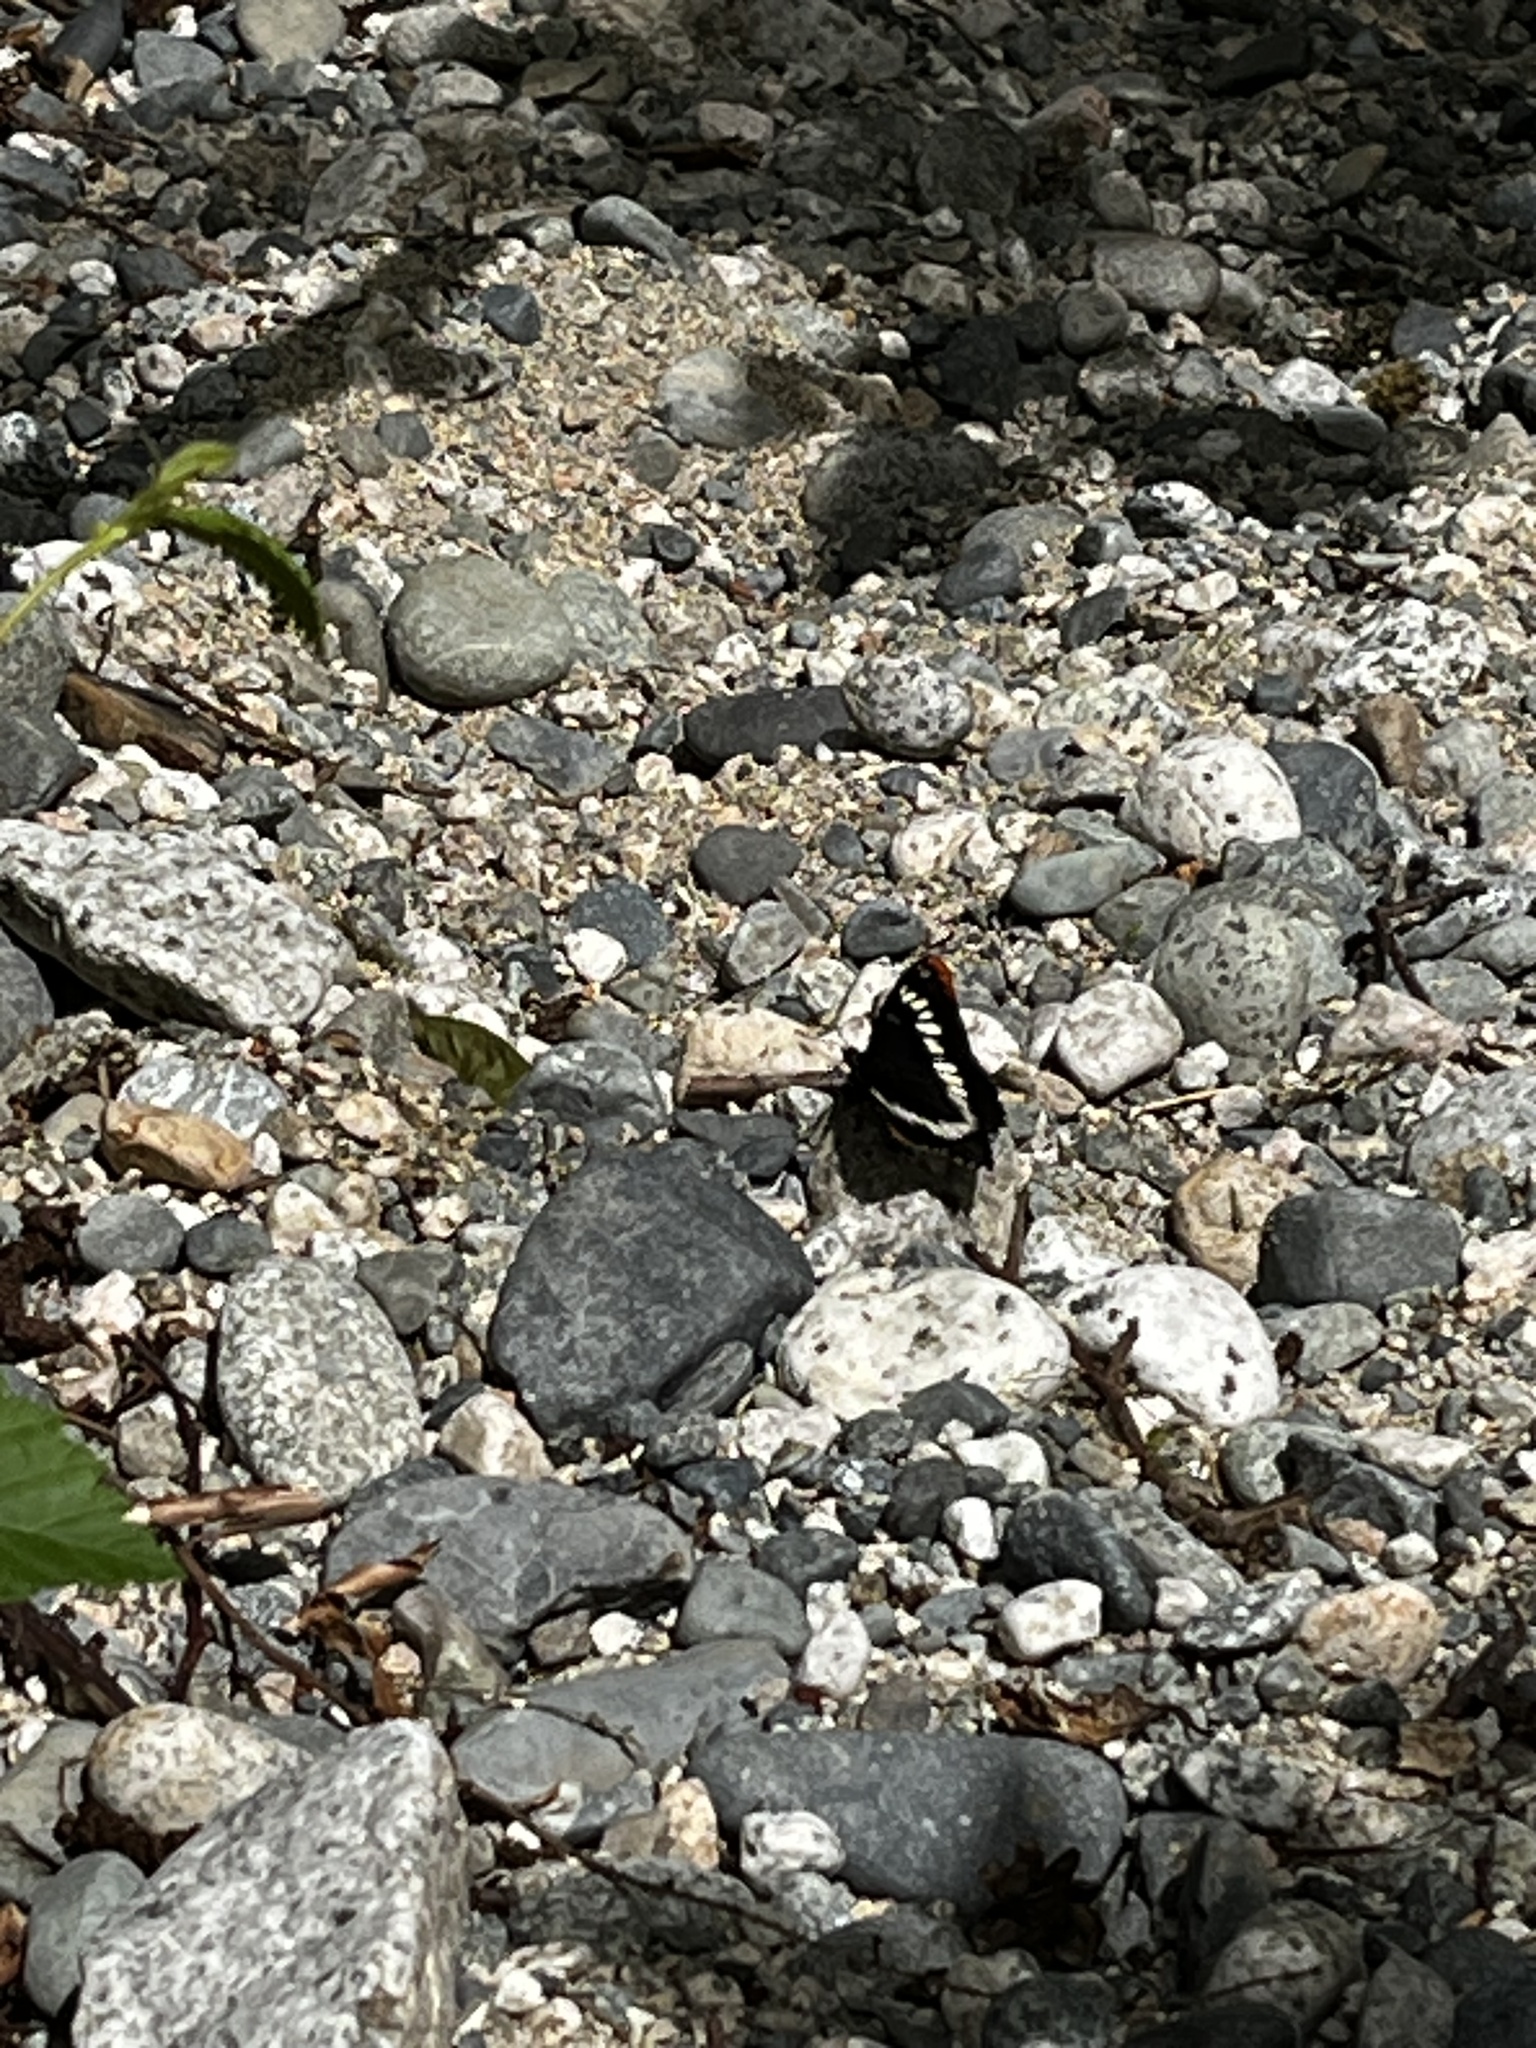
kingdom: Animalia
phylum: Arthropoda
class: Insecta
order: Lepidoptera
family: Nymphalidae
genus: Limenitis
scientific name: Limenitis lorquini
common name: Lorquin's admiral
